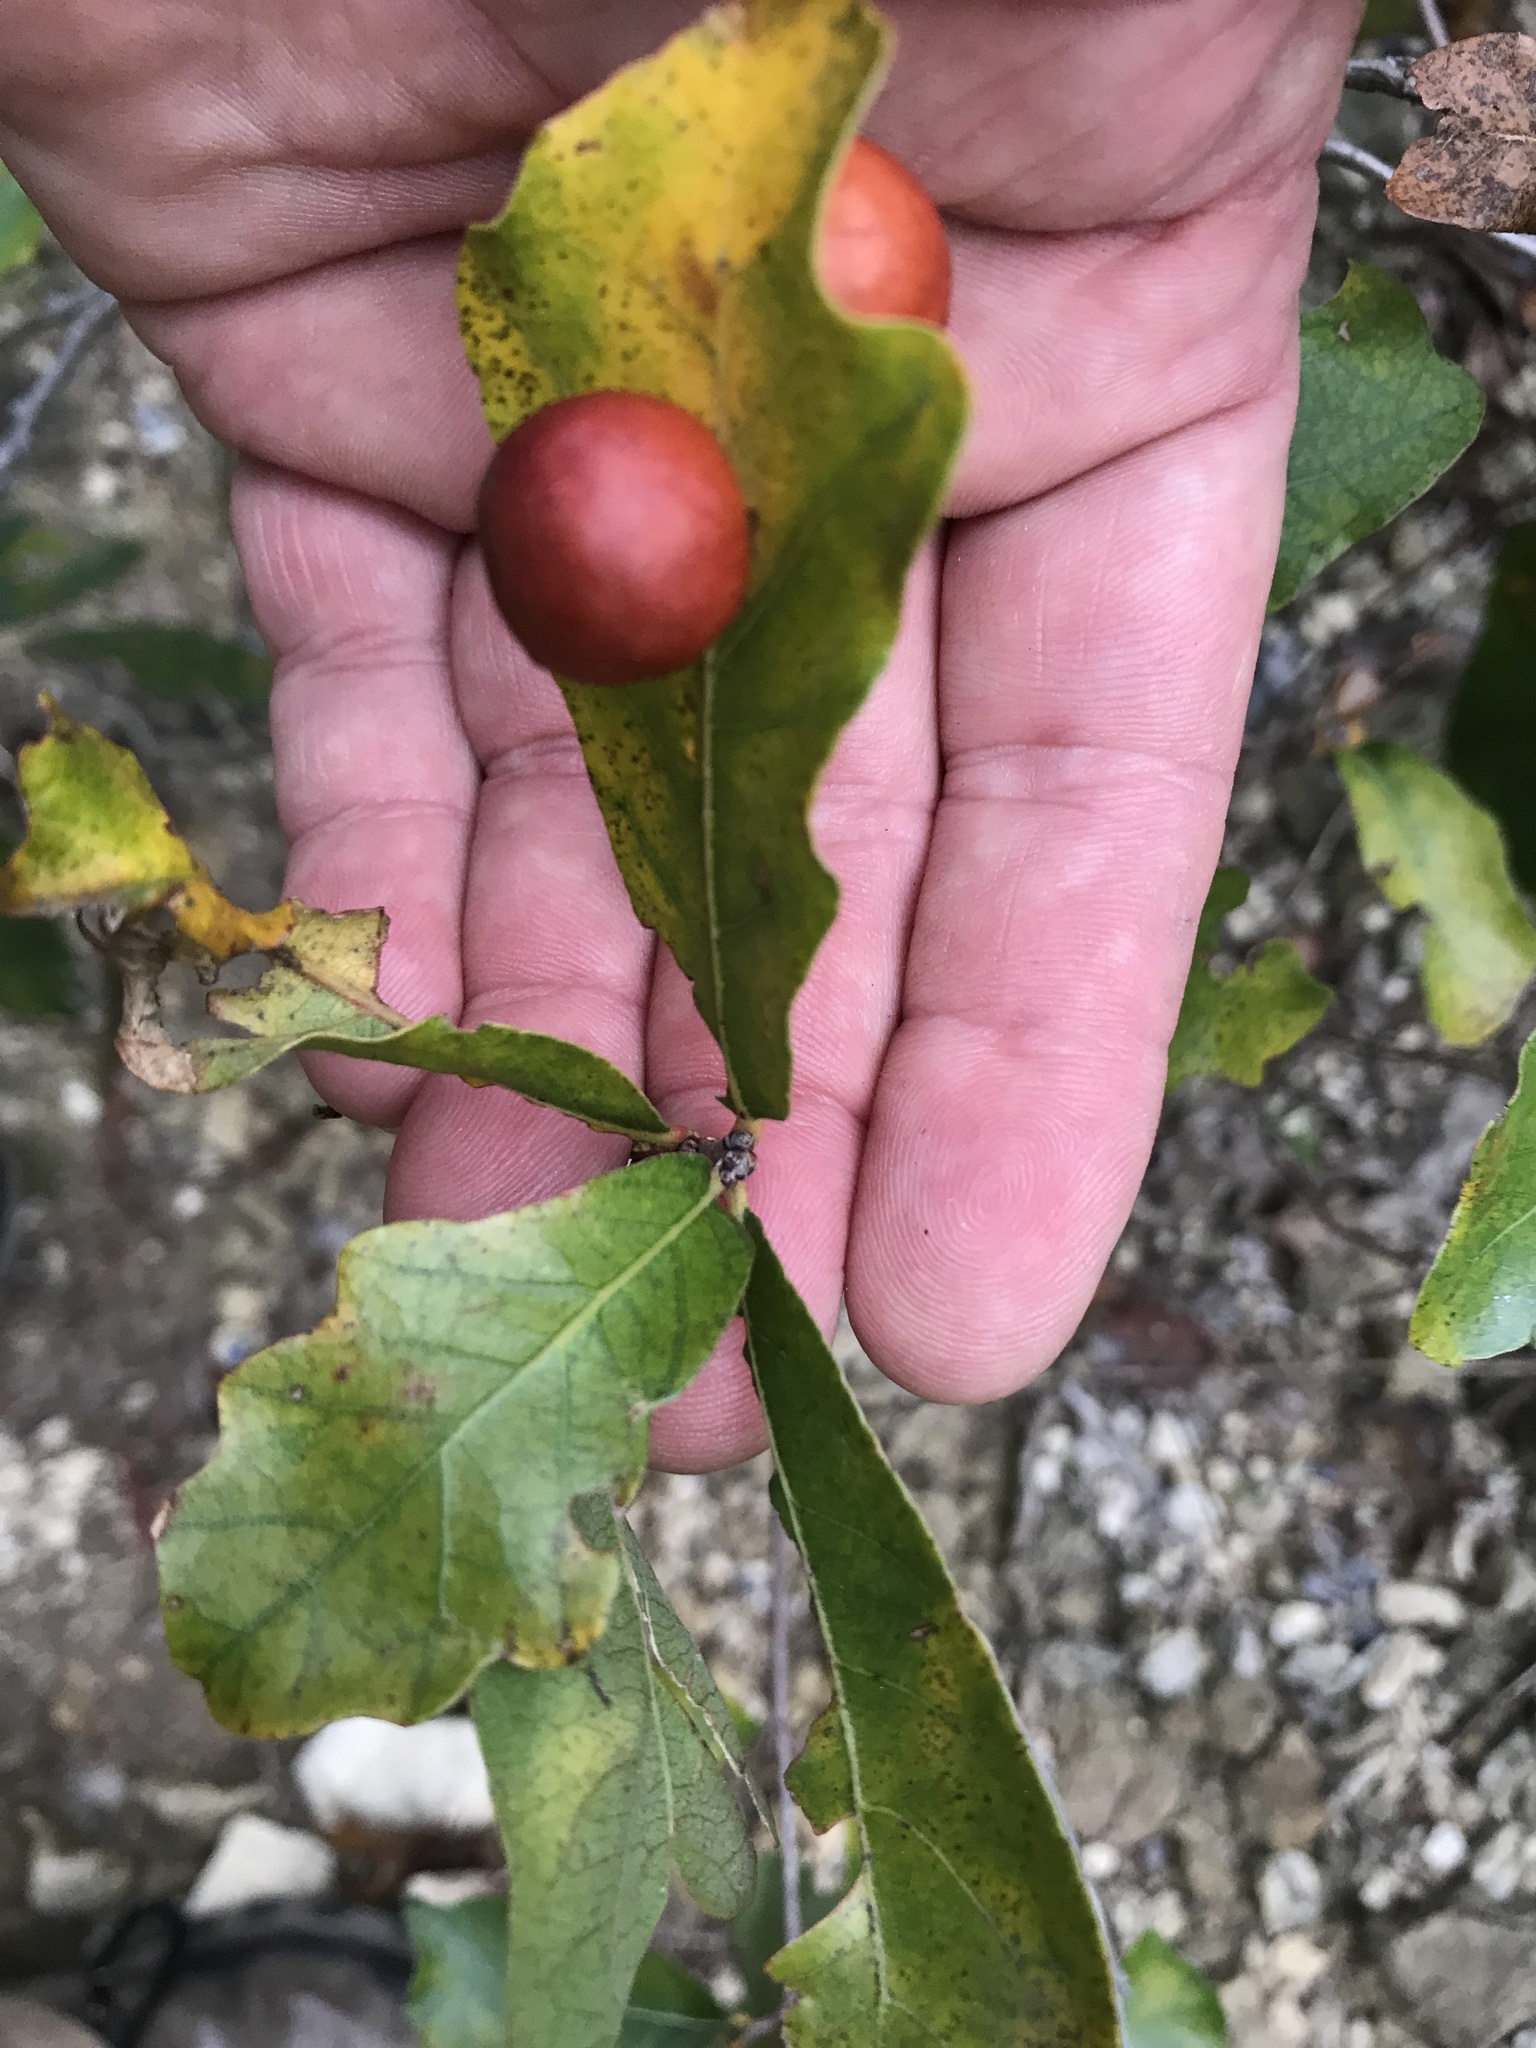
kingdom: Animalia
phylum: Arthropoda
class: Insecta
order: Hymenoptera
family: Cynipidae
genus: Trigonaspis
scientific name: Trigonaspis
